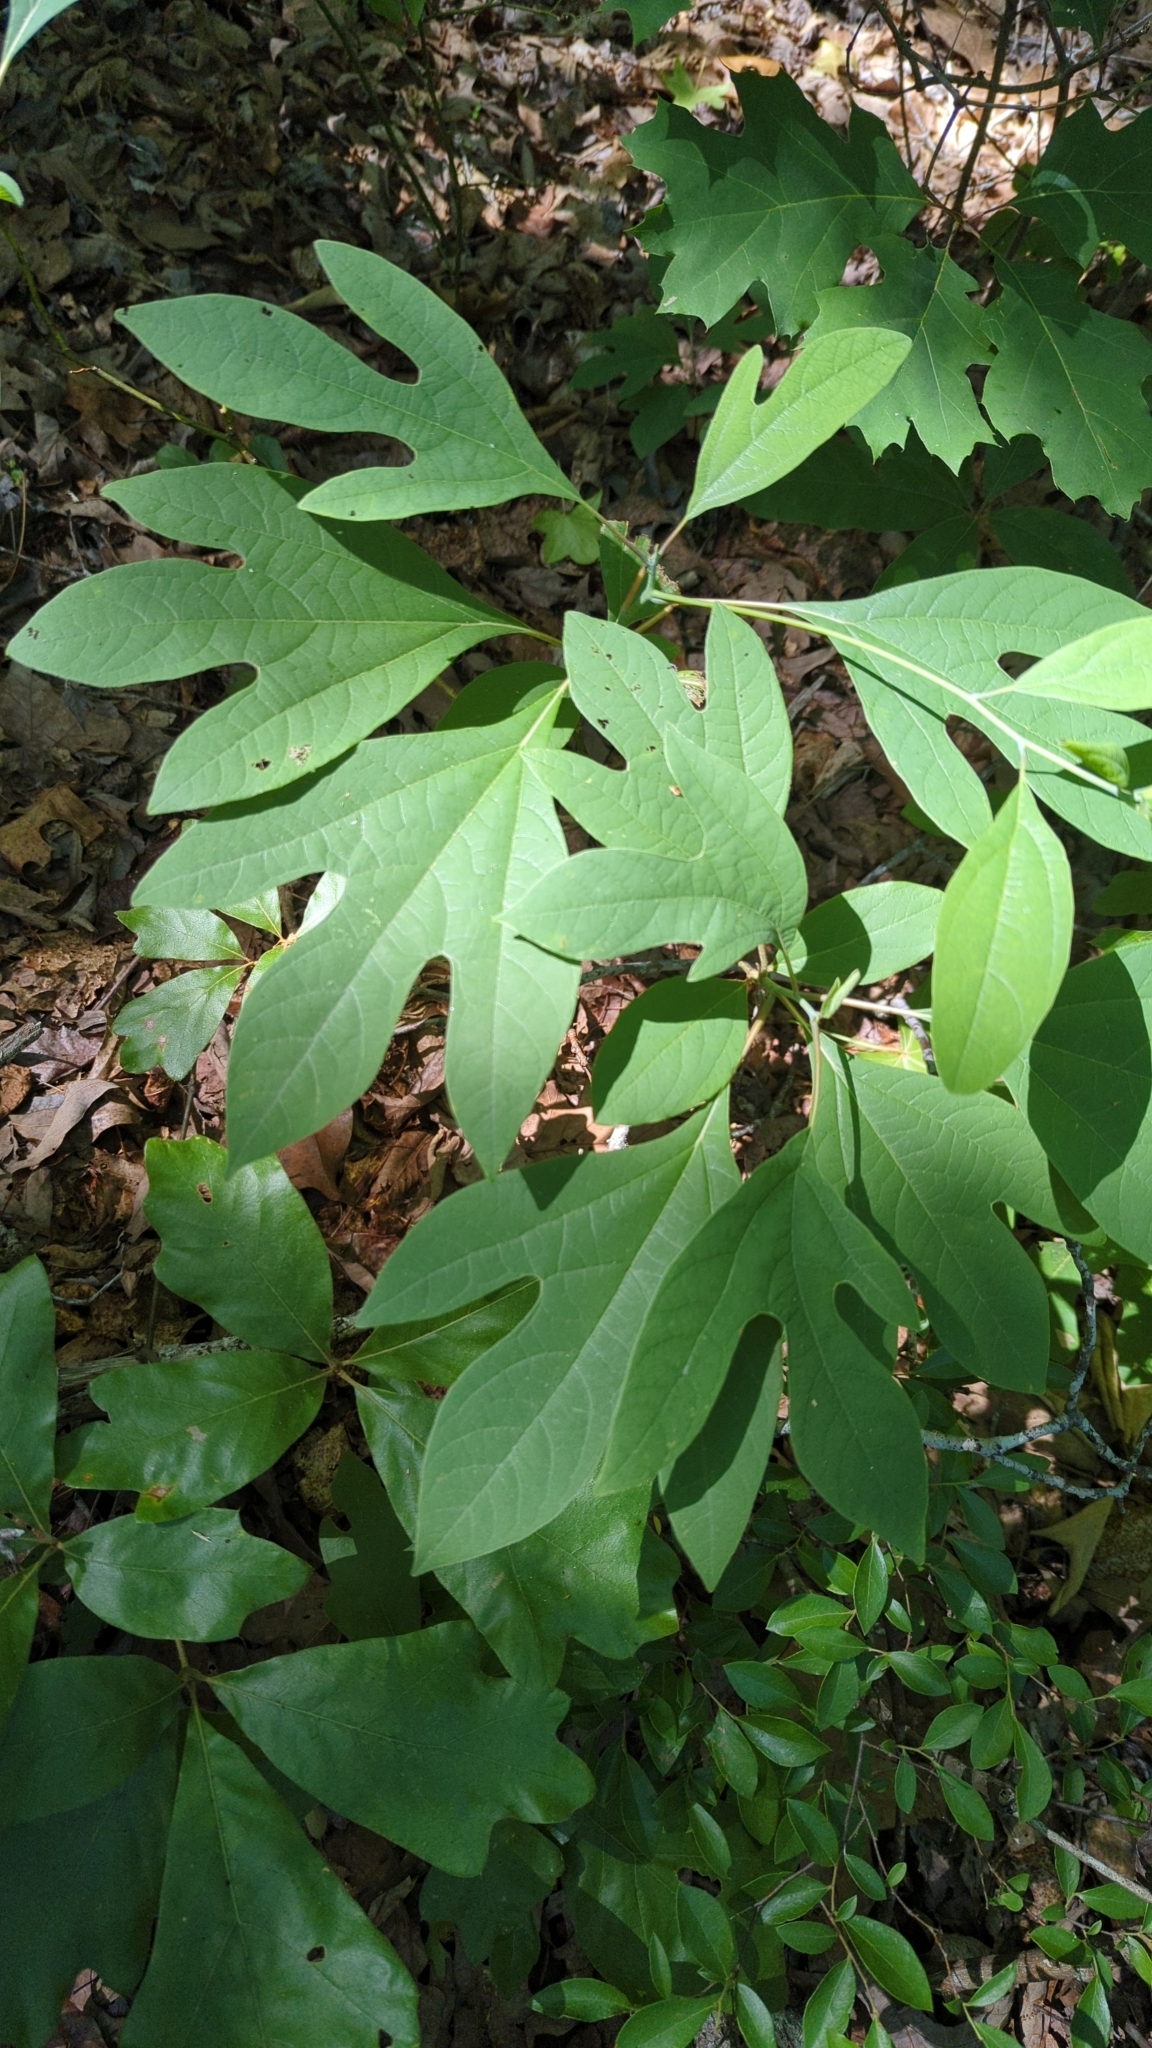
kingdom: Plantae
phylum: Tracheophyta
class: Magnoliopsida
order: Laurales
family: Lauraceae
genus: Sassafras
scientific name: Sassafras albidum
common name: Sassafras
